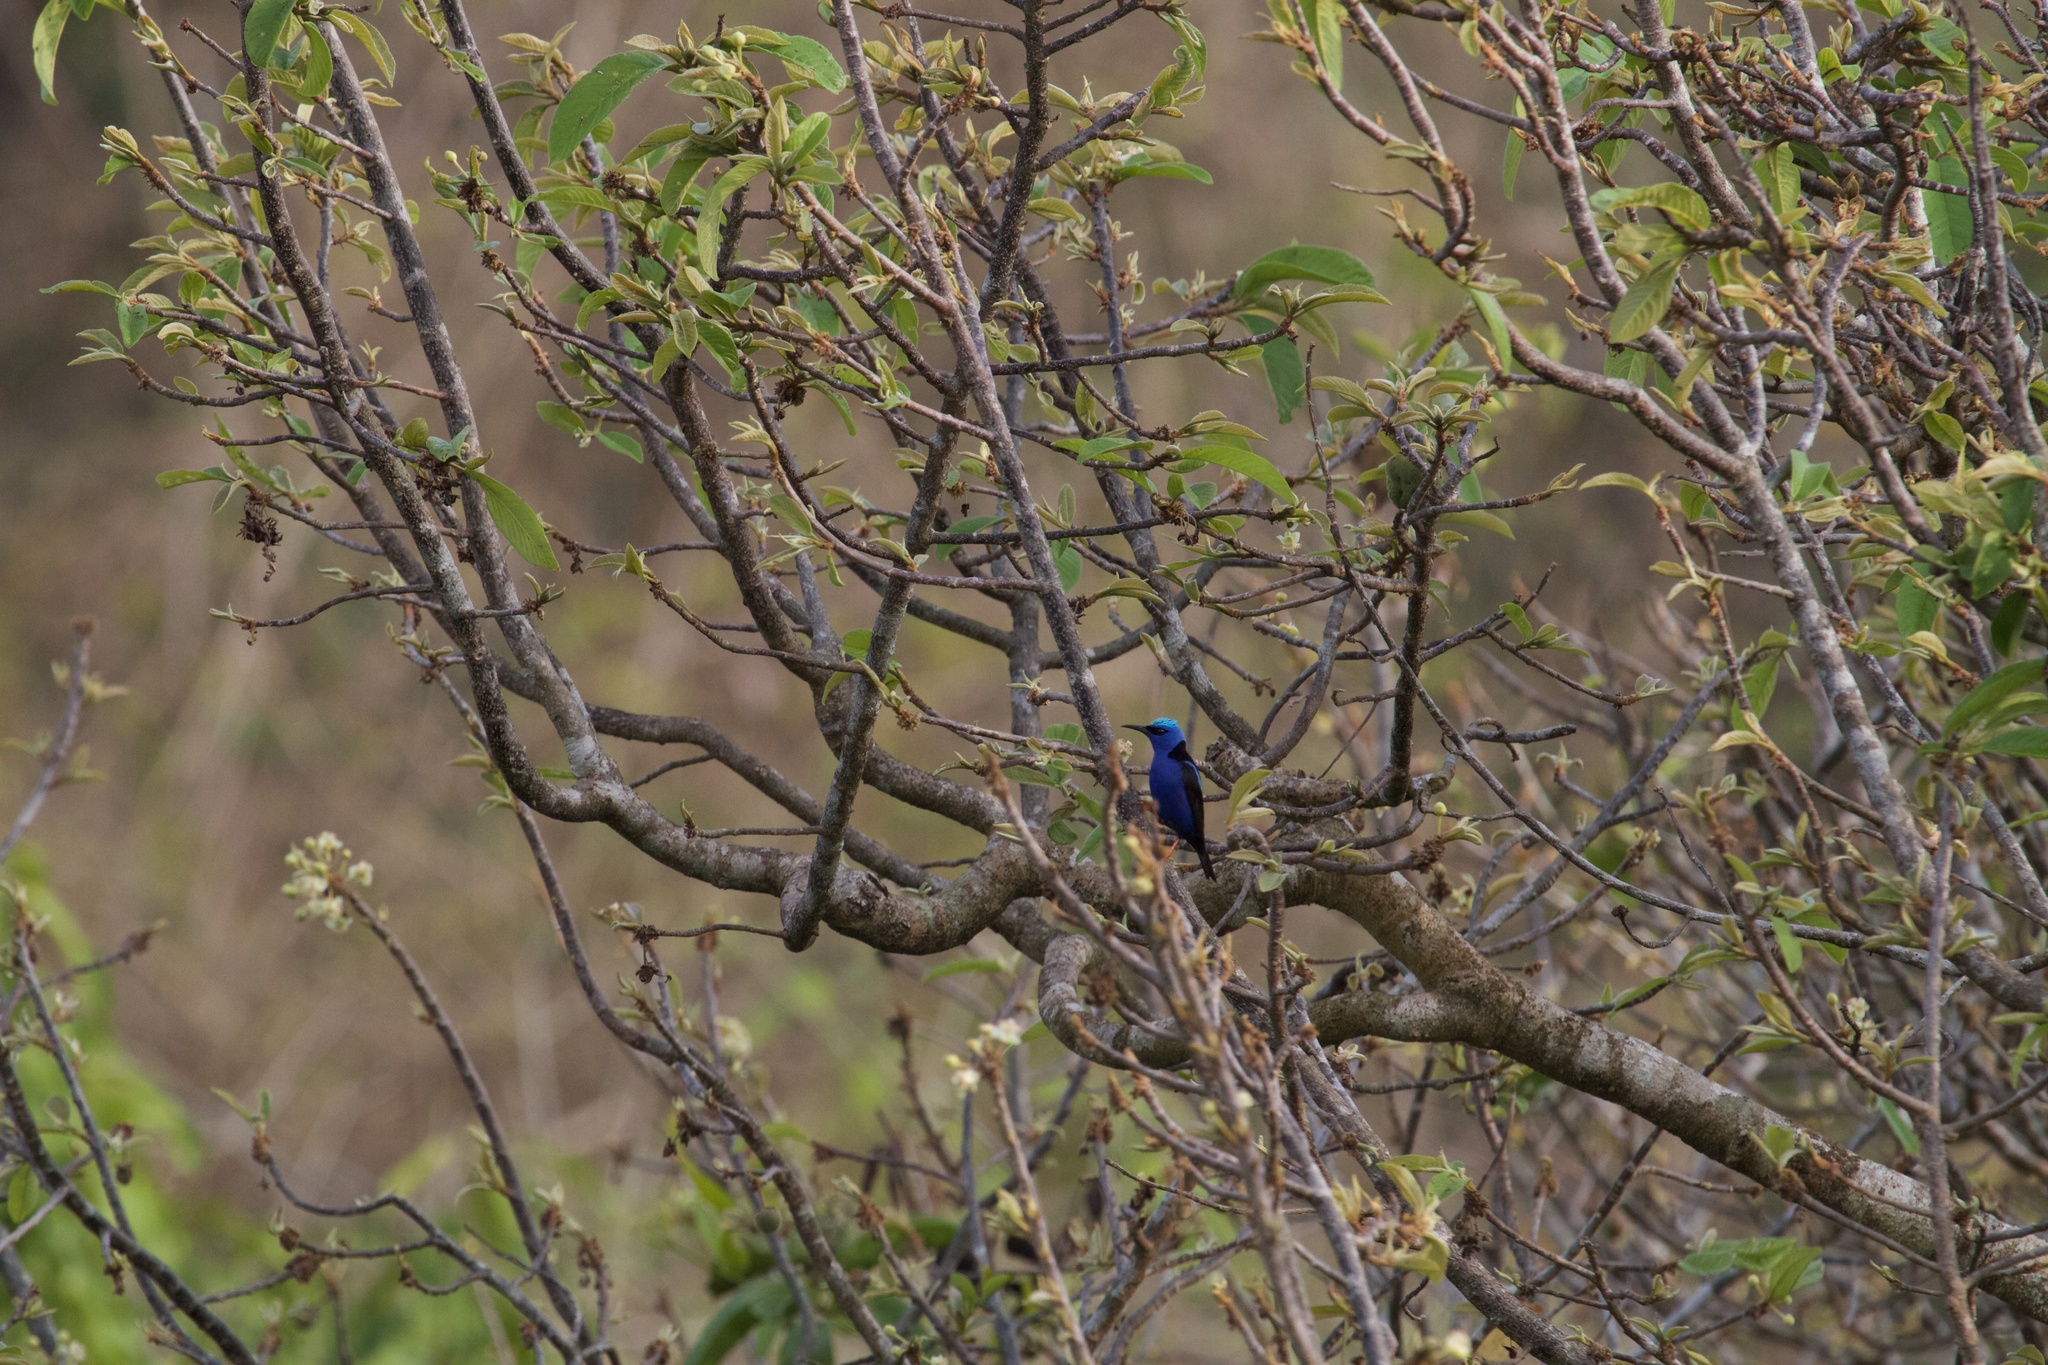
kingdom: Animalia
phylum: Chordata
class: Aves
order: Passeriformes
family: Thraupidae
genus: Cyanerpes
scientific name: Cyanerpes cyaneus
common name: Red-legged honeycreeper
